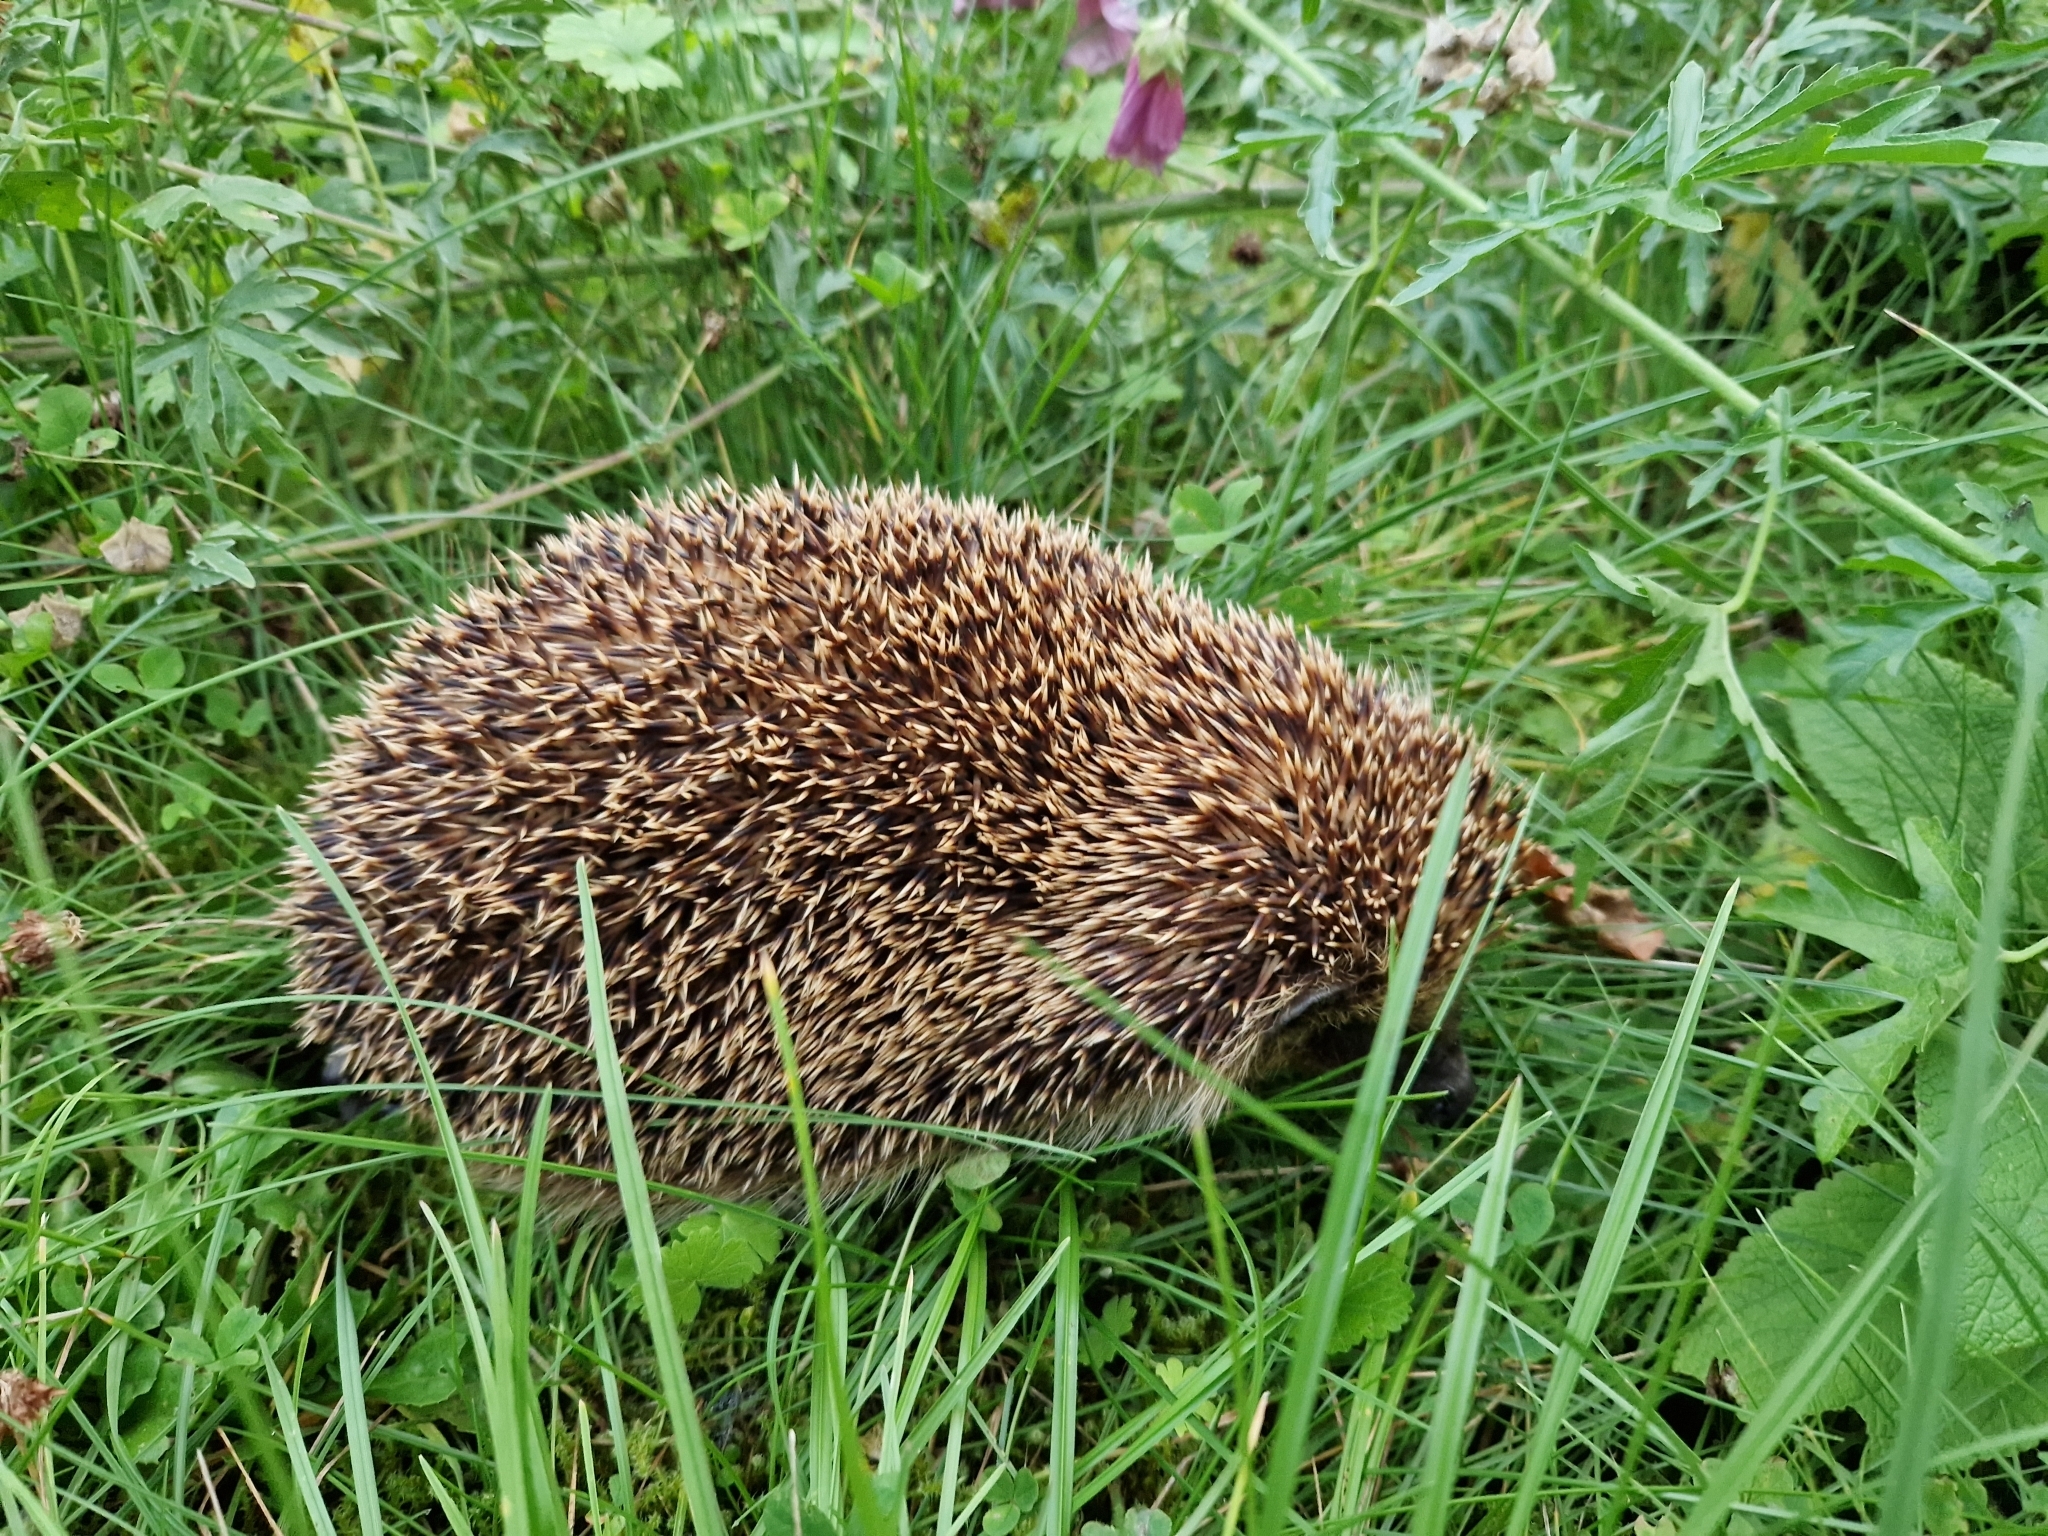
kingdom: Animalia
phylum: Chordata
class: Mammalia
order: Erinaceomorpha
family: Erinaceidae
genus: Erinaceus
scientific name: Erinaceus europaeus
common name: West european hedgehog
